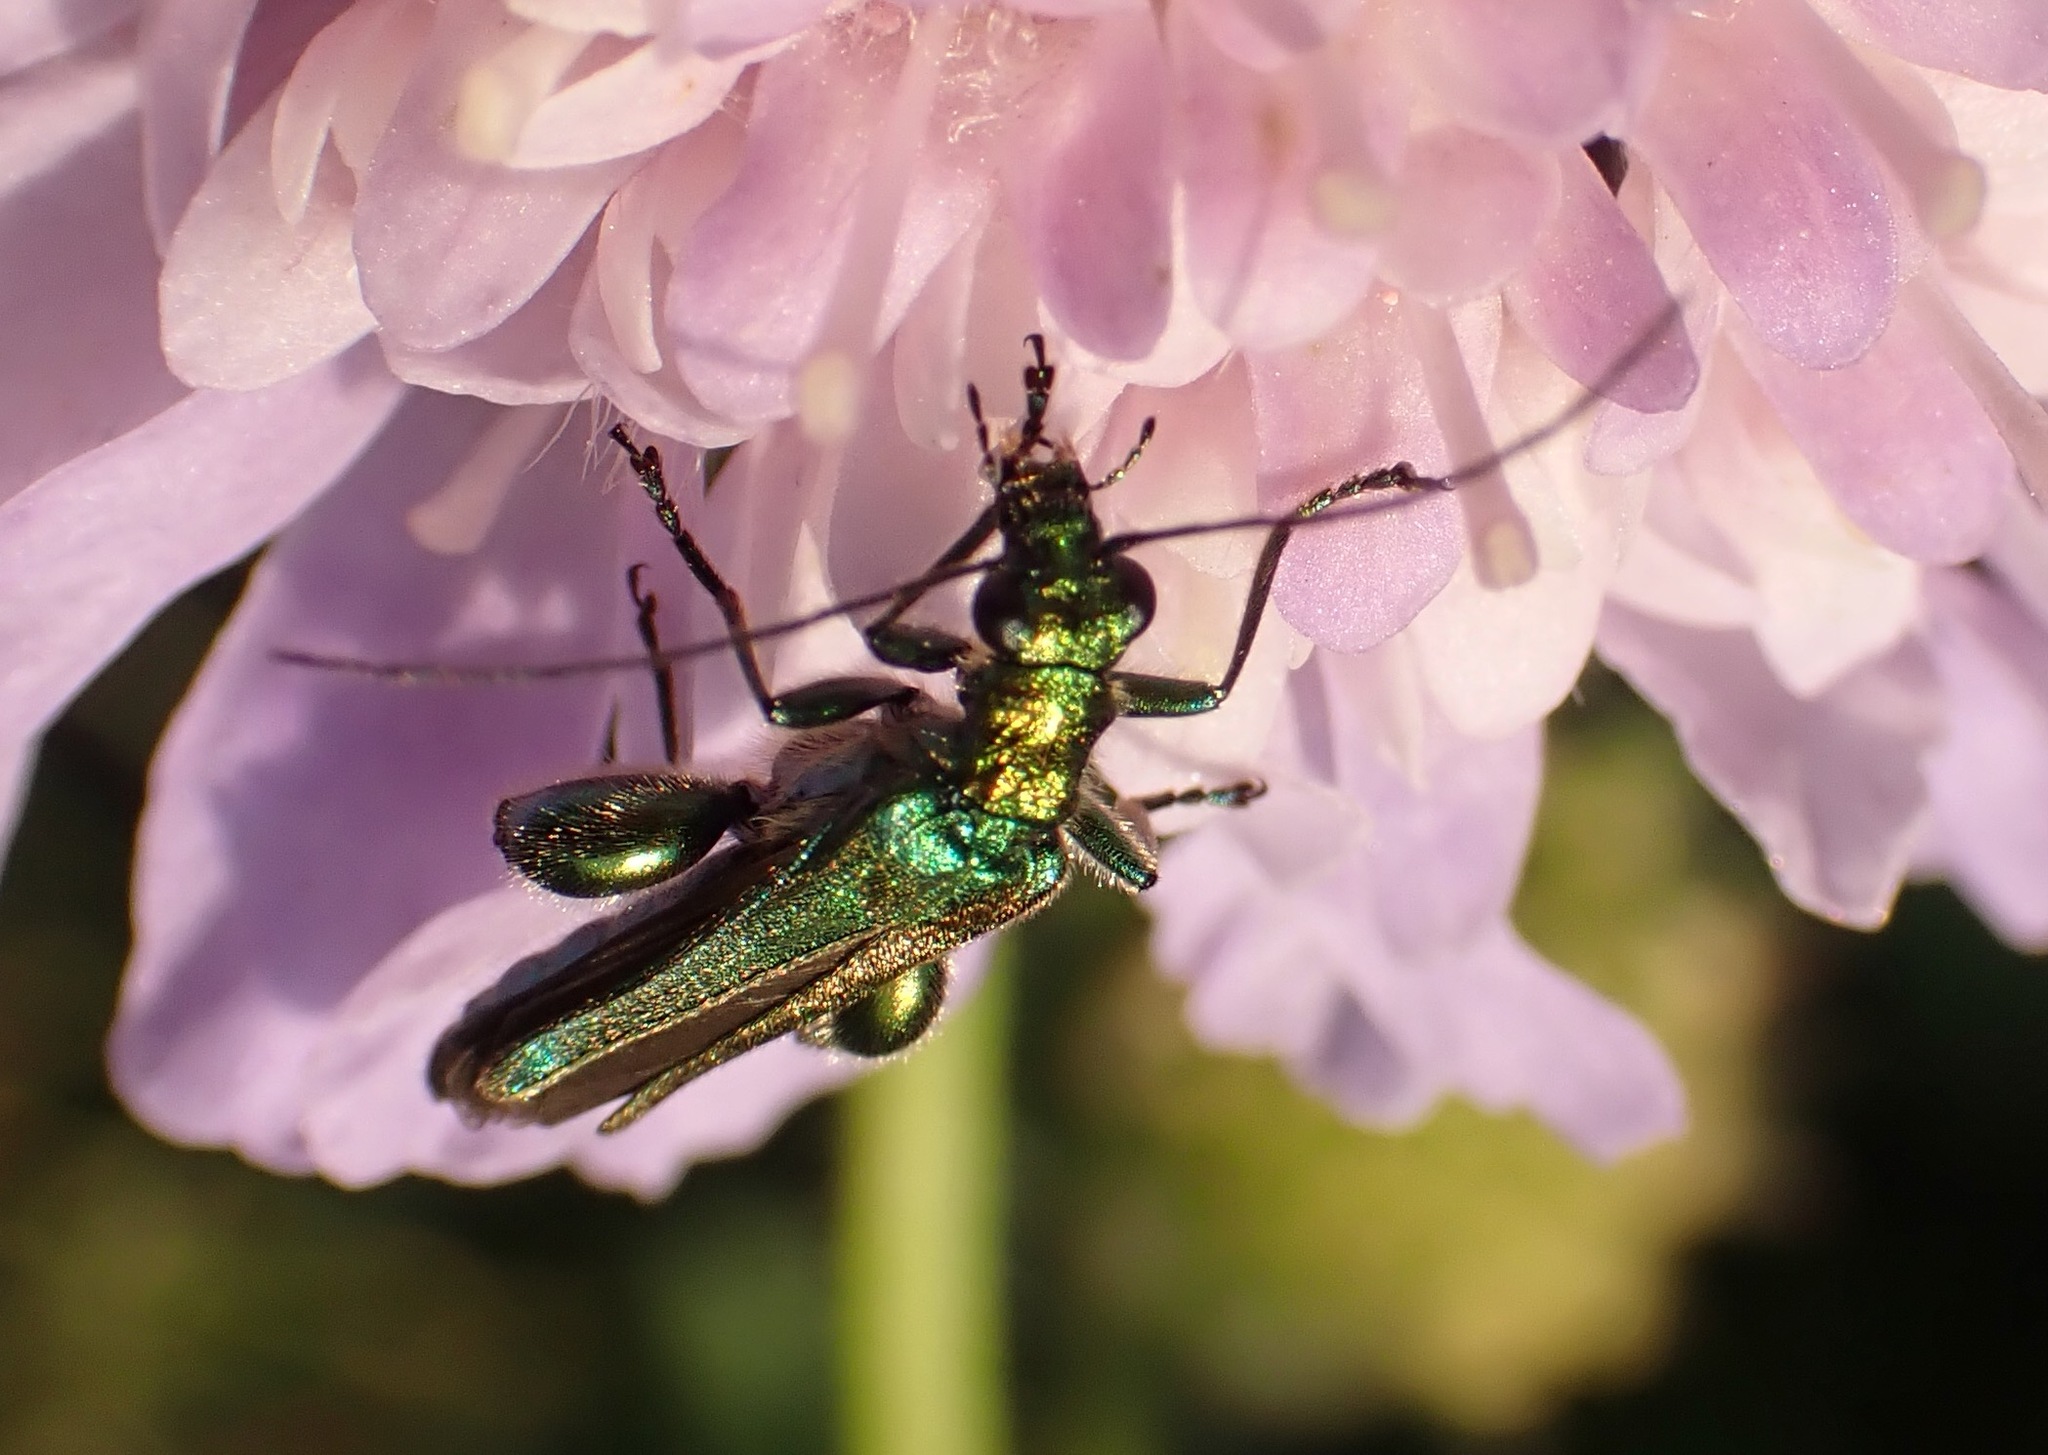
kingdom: Animalia
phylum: Arthropoda
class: Insecta
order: Coleoptera
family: Oedemeridae
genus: Oedemera
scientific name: Oedemera nobilis
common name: Swollen-thighed beetle
